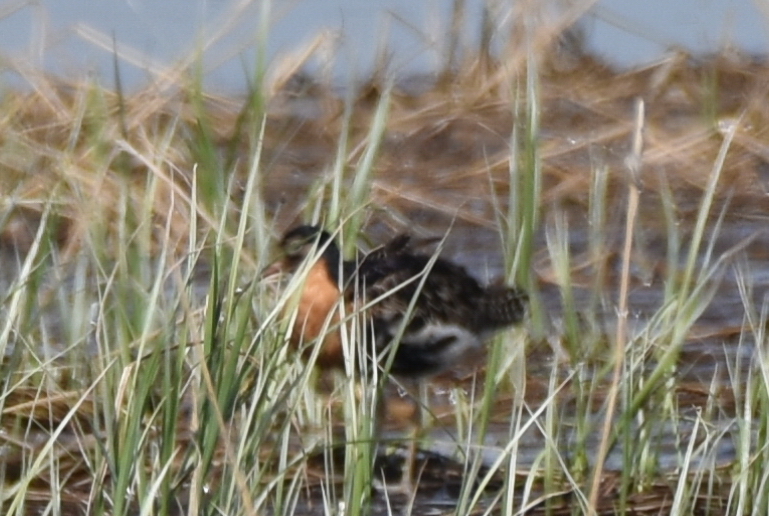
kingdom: Animalia
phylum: Chordata
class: Aves
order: Charadriiformes
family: Scolopacidae
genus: Calidris
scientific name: Calidris pugnax
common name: Ruff
